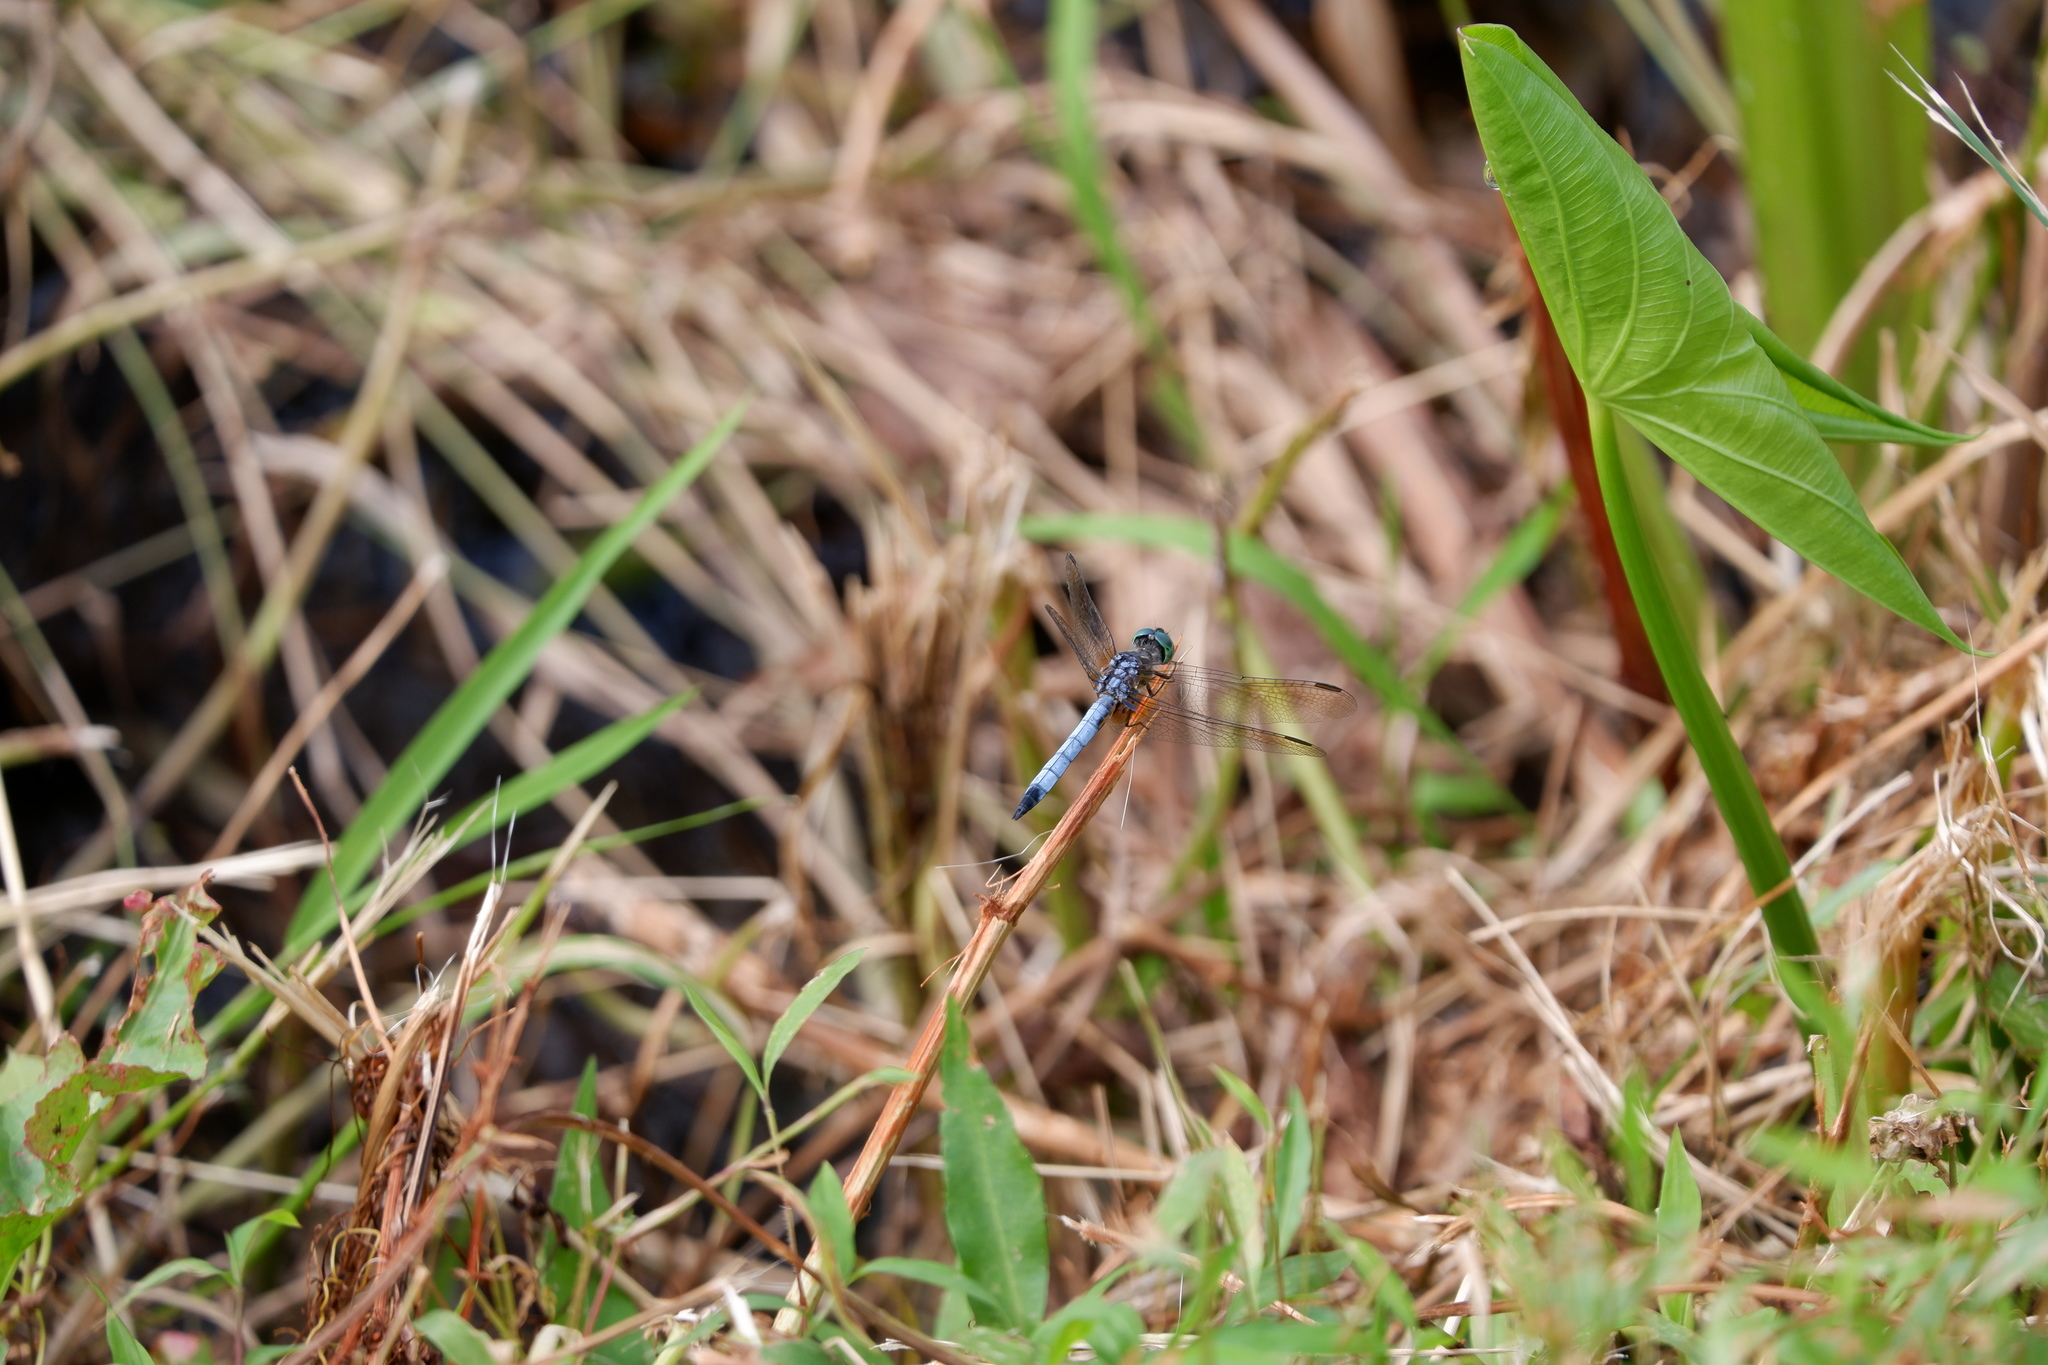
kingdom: Animalia
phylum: Arthropoda
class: Insecta
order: Odonata
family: Libellulidae
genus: Pachydiplax
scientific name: Pachydiplax longipennis
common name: Blue dasher
